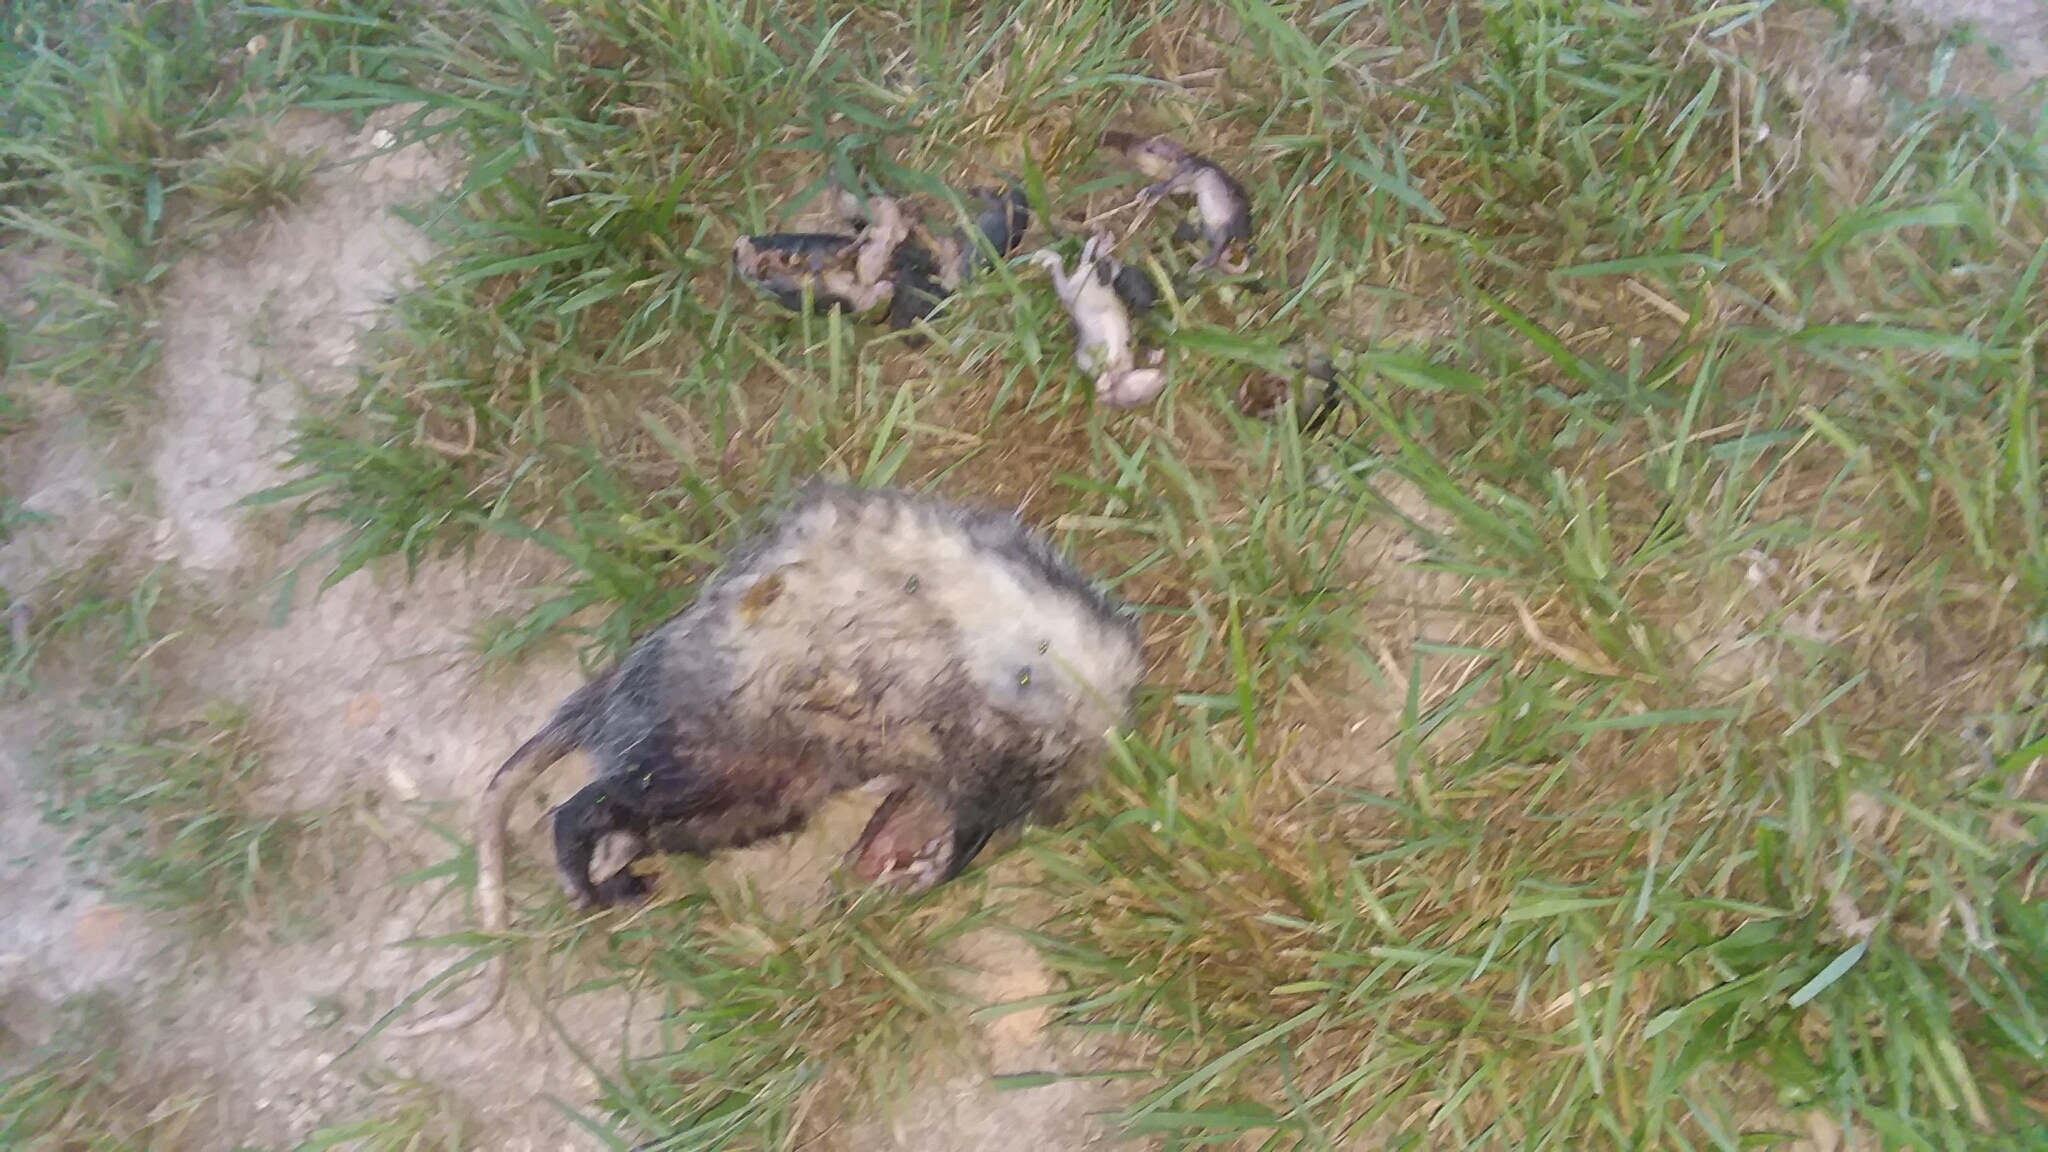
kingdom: Animalia
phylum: Chordata
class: Mammalia
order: Didelphimorphia
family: Didelphidae
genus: Didelphis
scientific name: Didelphis virginiana
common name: Virginia opossum
